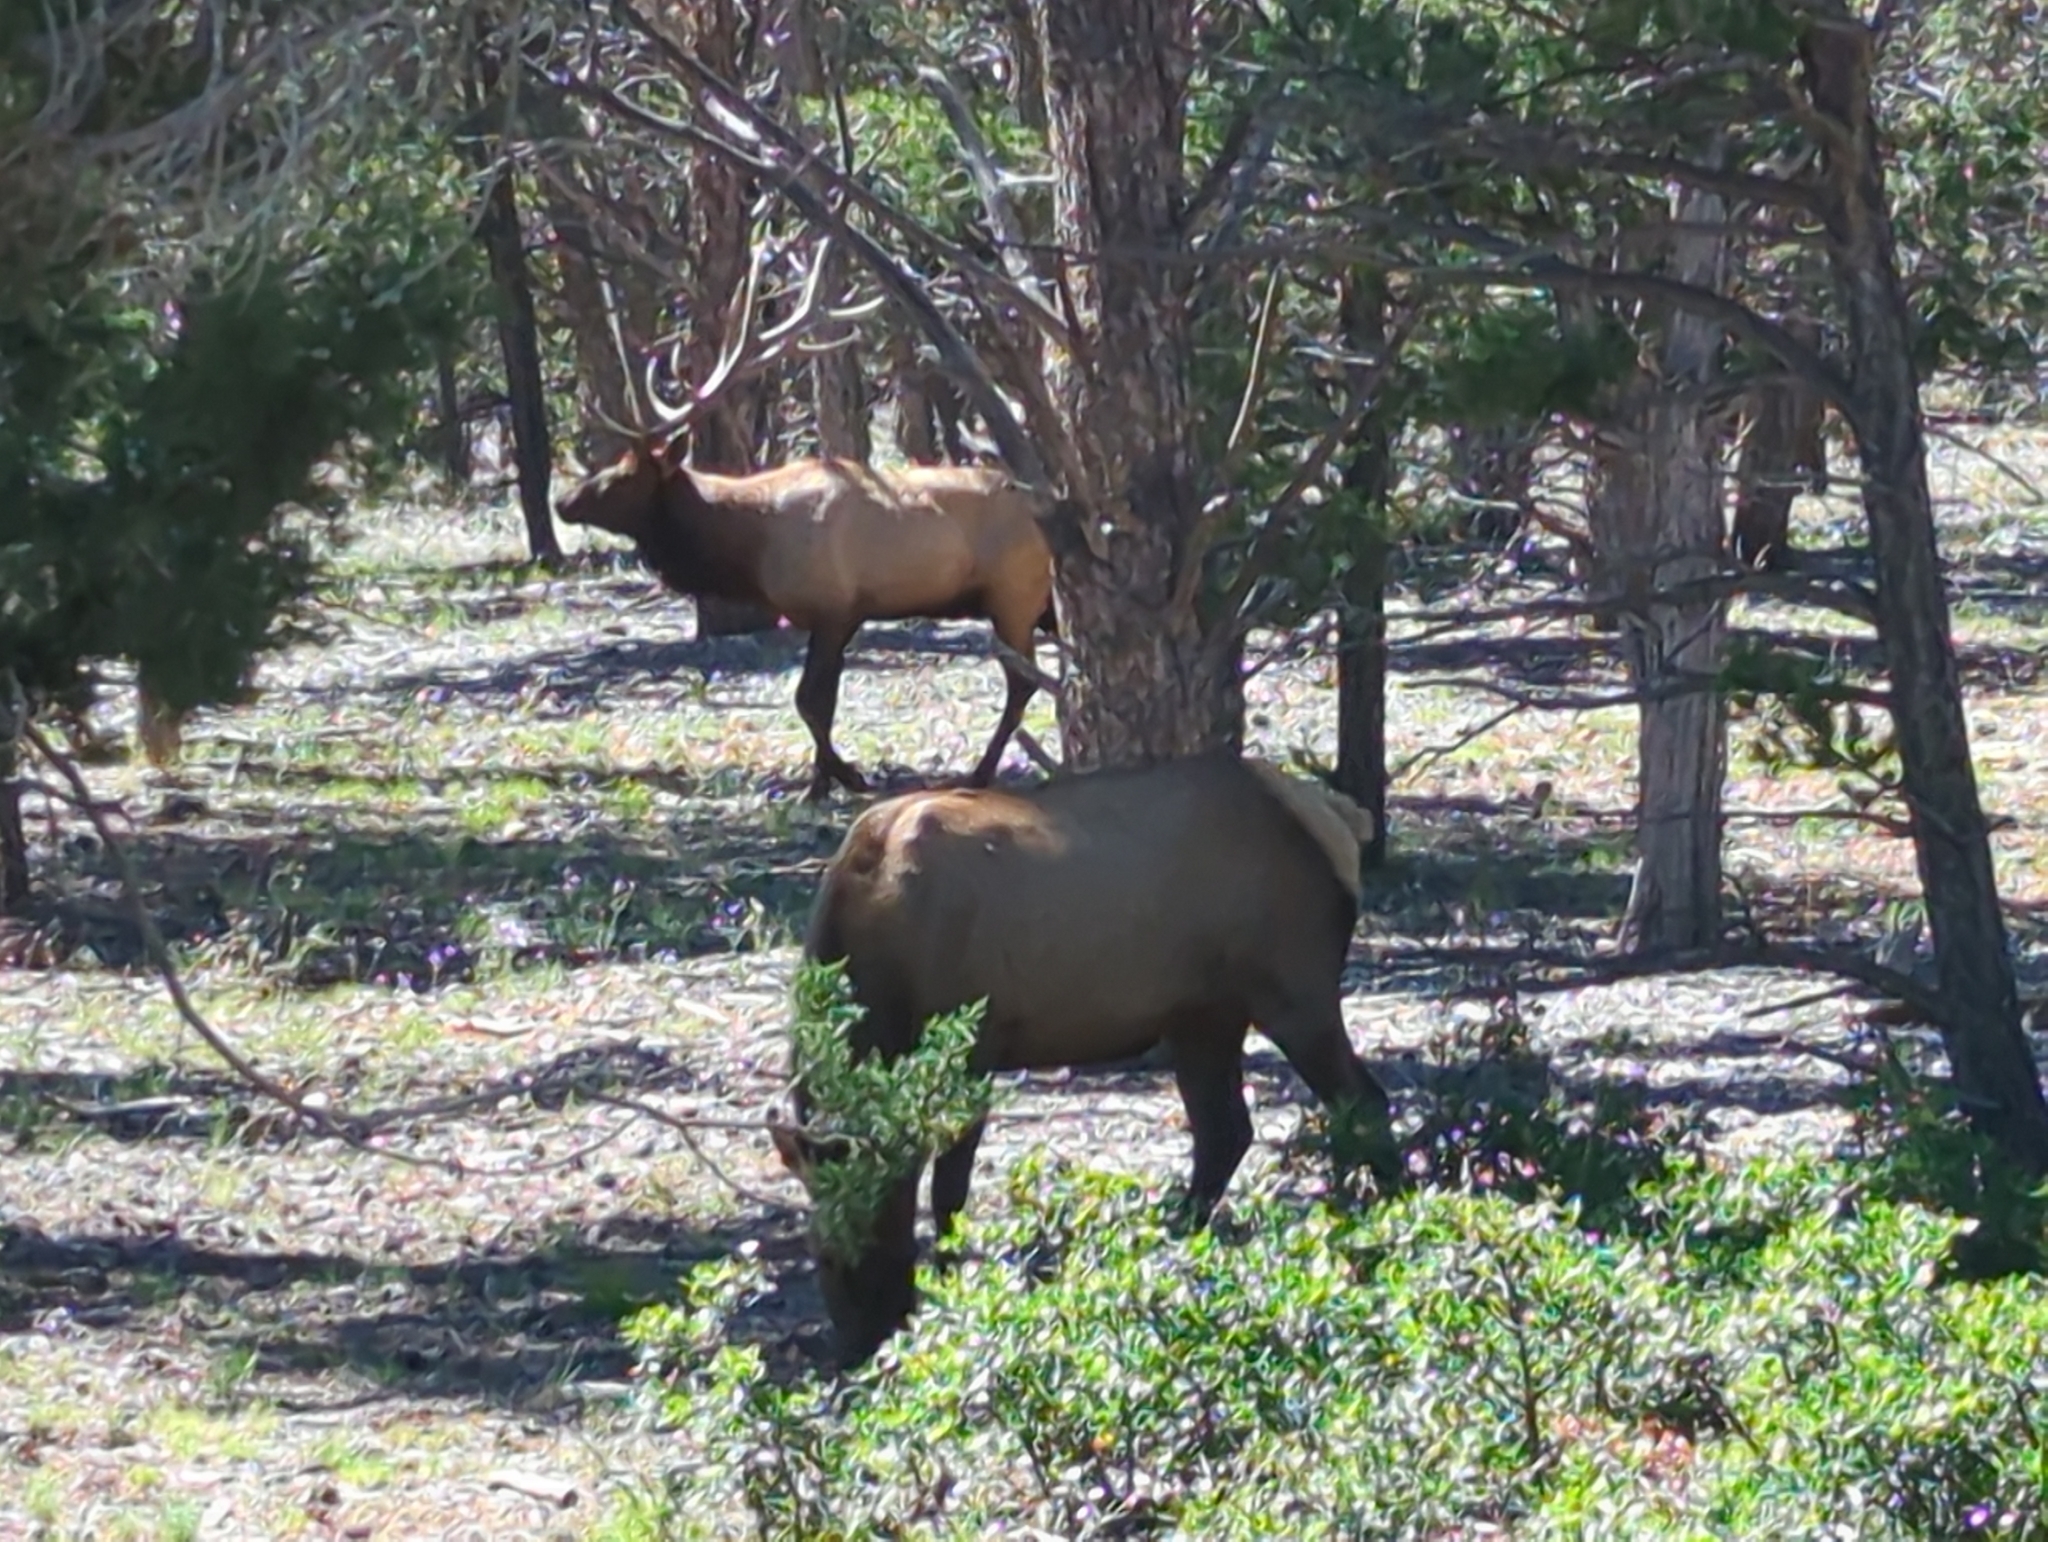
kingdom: Animalia
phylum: Chordata
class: Mammalia
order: Artiodactyla
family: Cervidae
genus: Cervus
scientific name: Cervus elaphus
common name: Red deer
